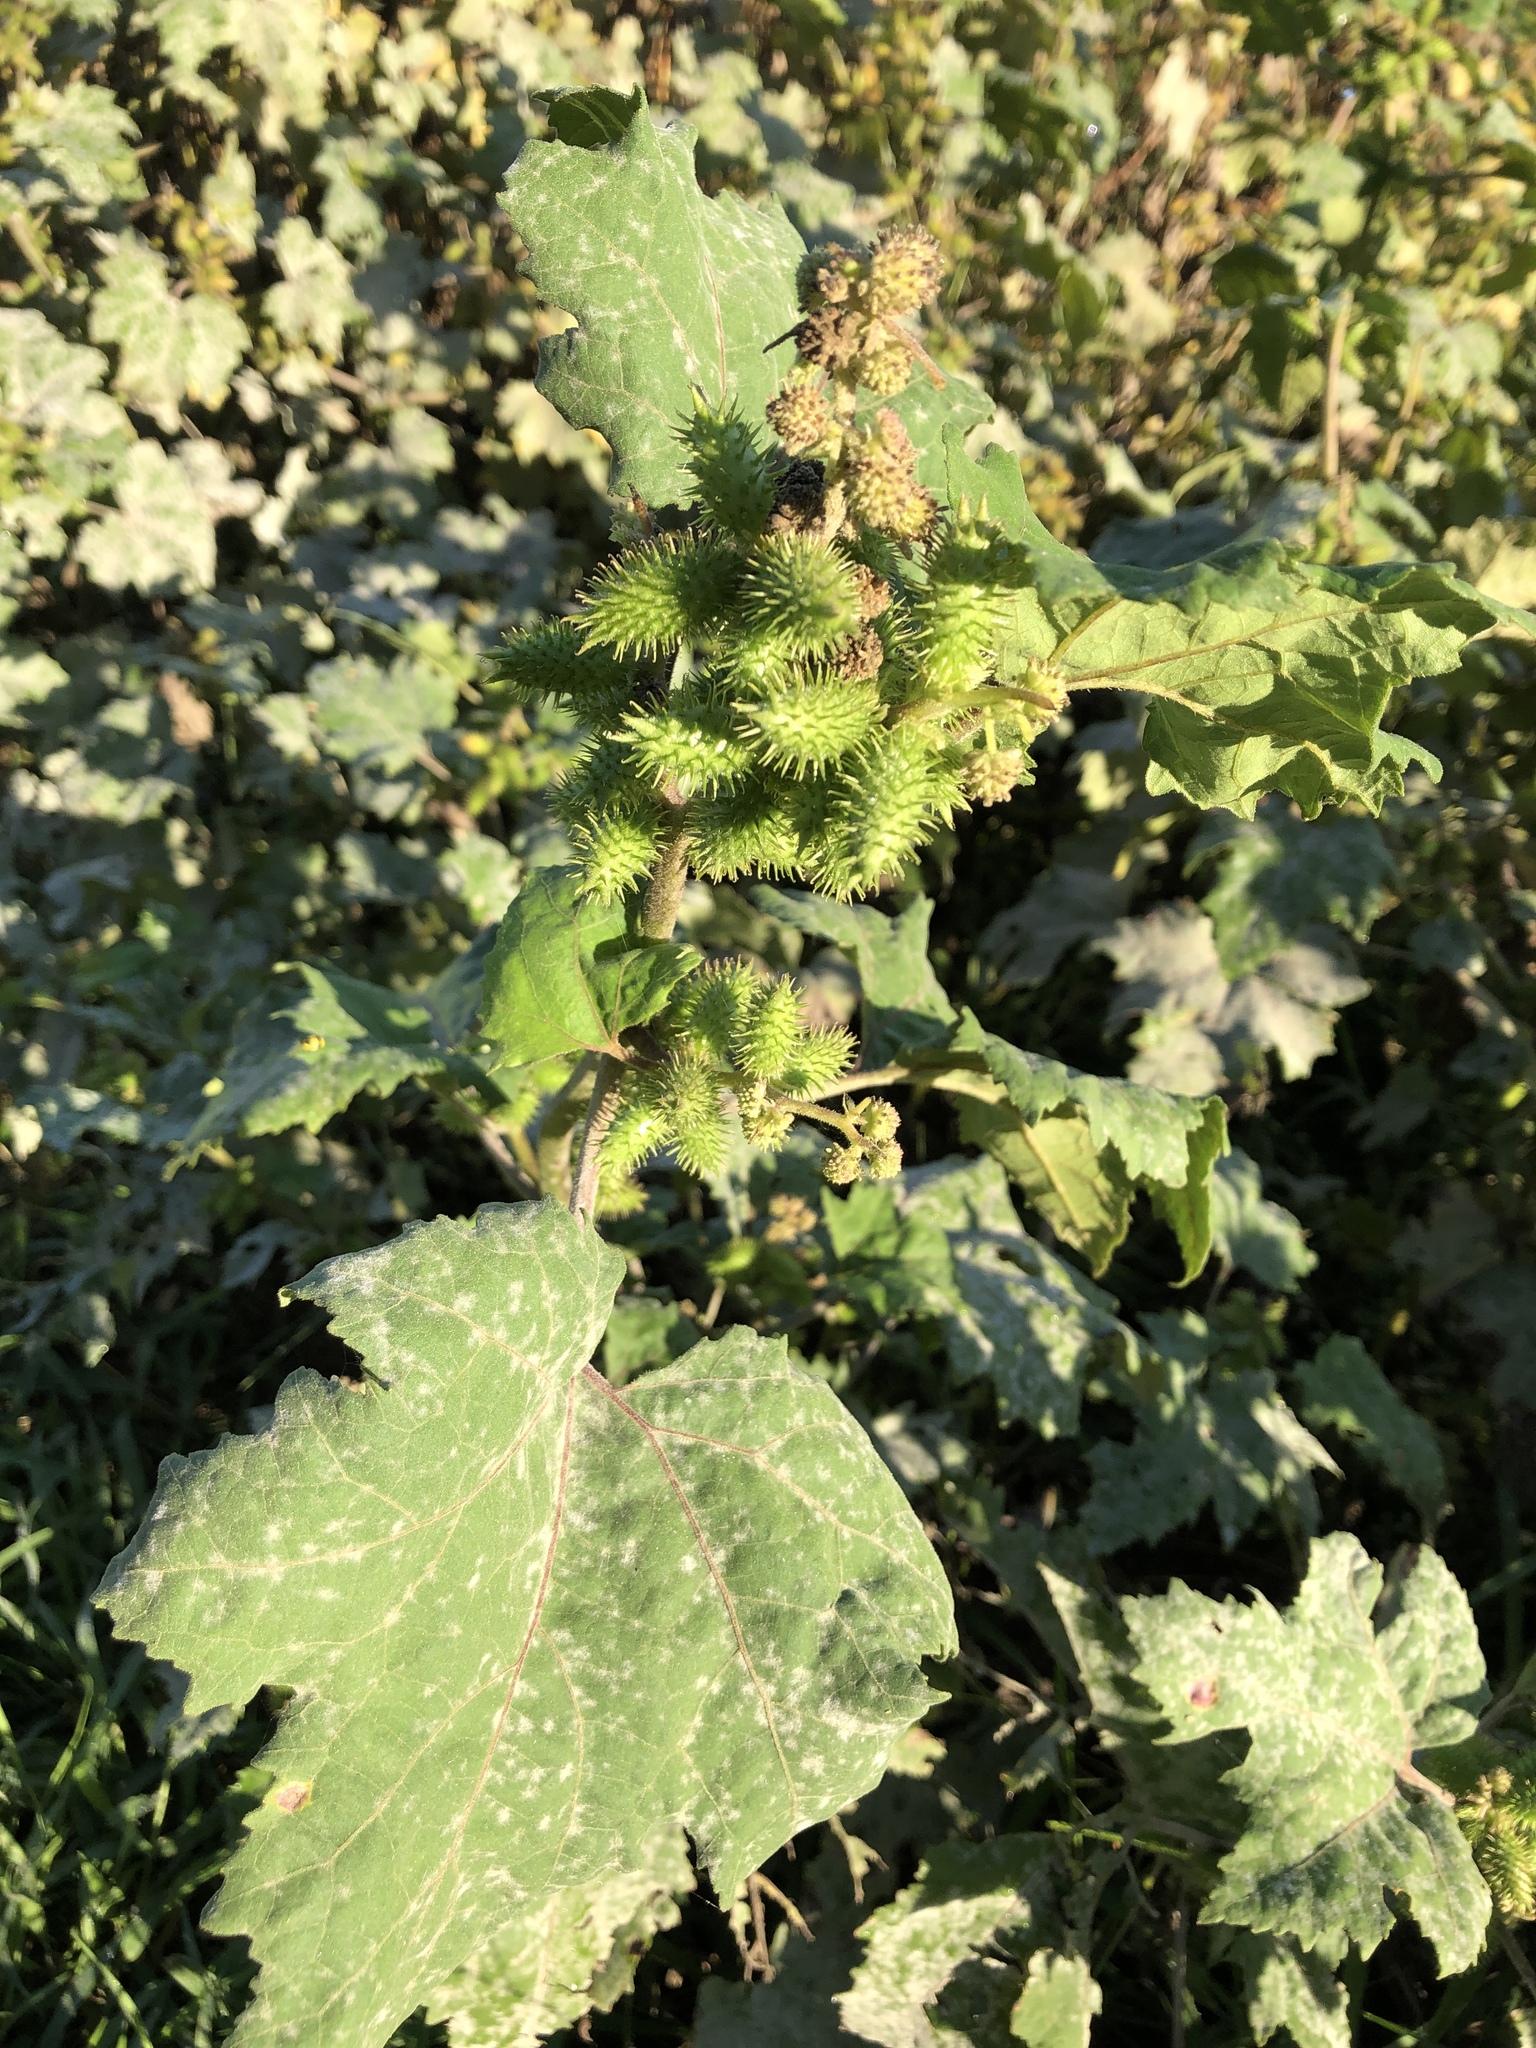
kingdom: Plantae
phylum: Tracheophyta
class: Magnoliopsida
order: Asterales
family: Asteraceae
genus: Xanthium
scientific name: Xanthium strumarium
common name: Rough cocklebur
